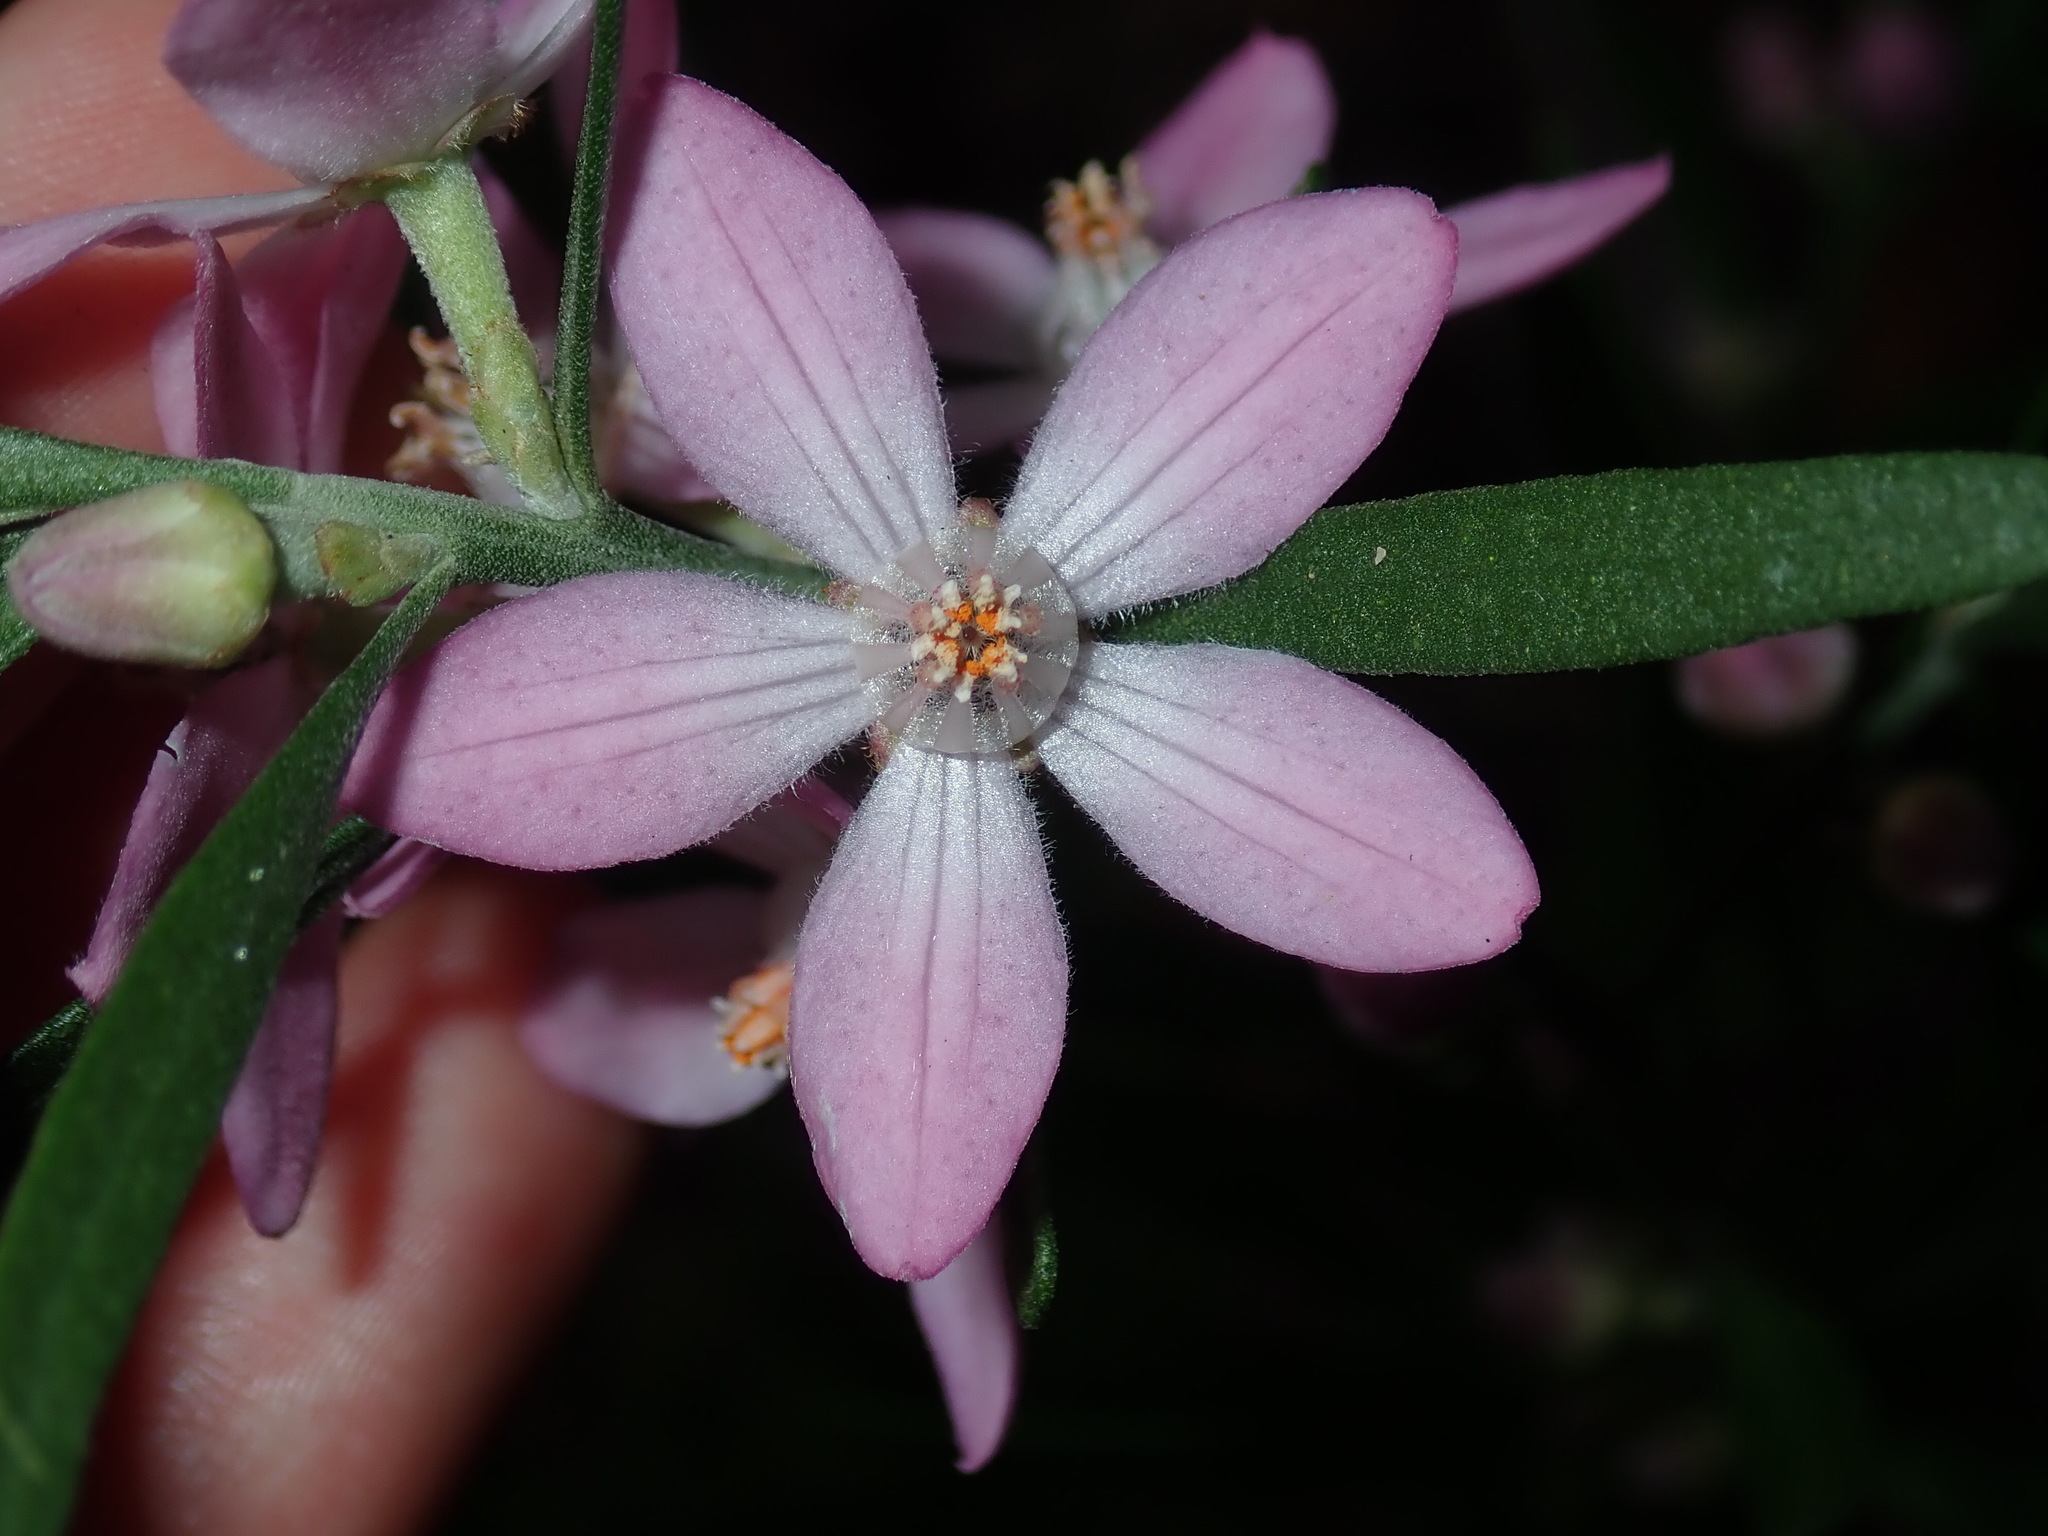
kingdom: Plantae
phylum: Tracheophyta
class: Magnoliopsida
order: Sapindales
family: Rutaceae
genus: Eriostemon
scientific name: Eriostemon australasius
